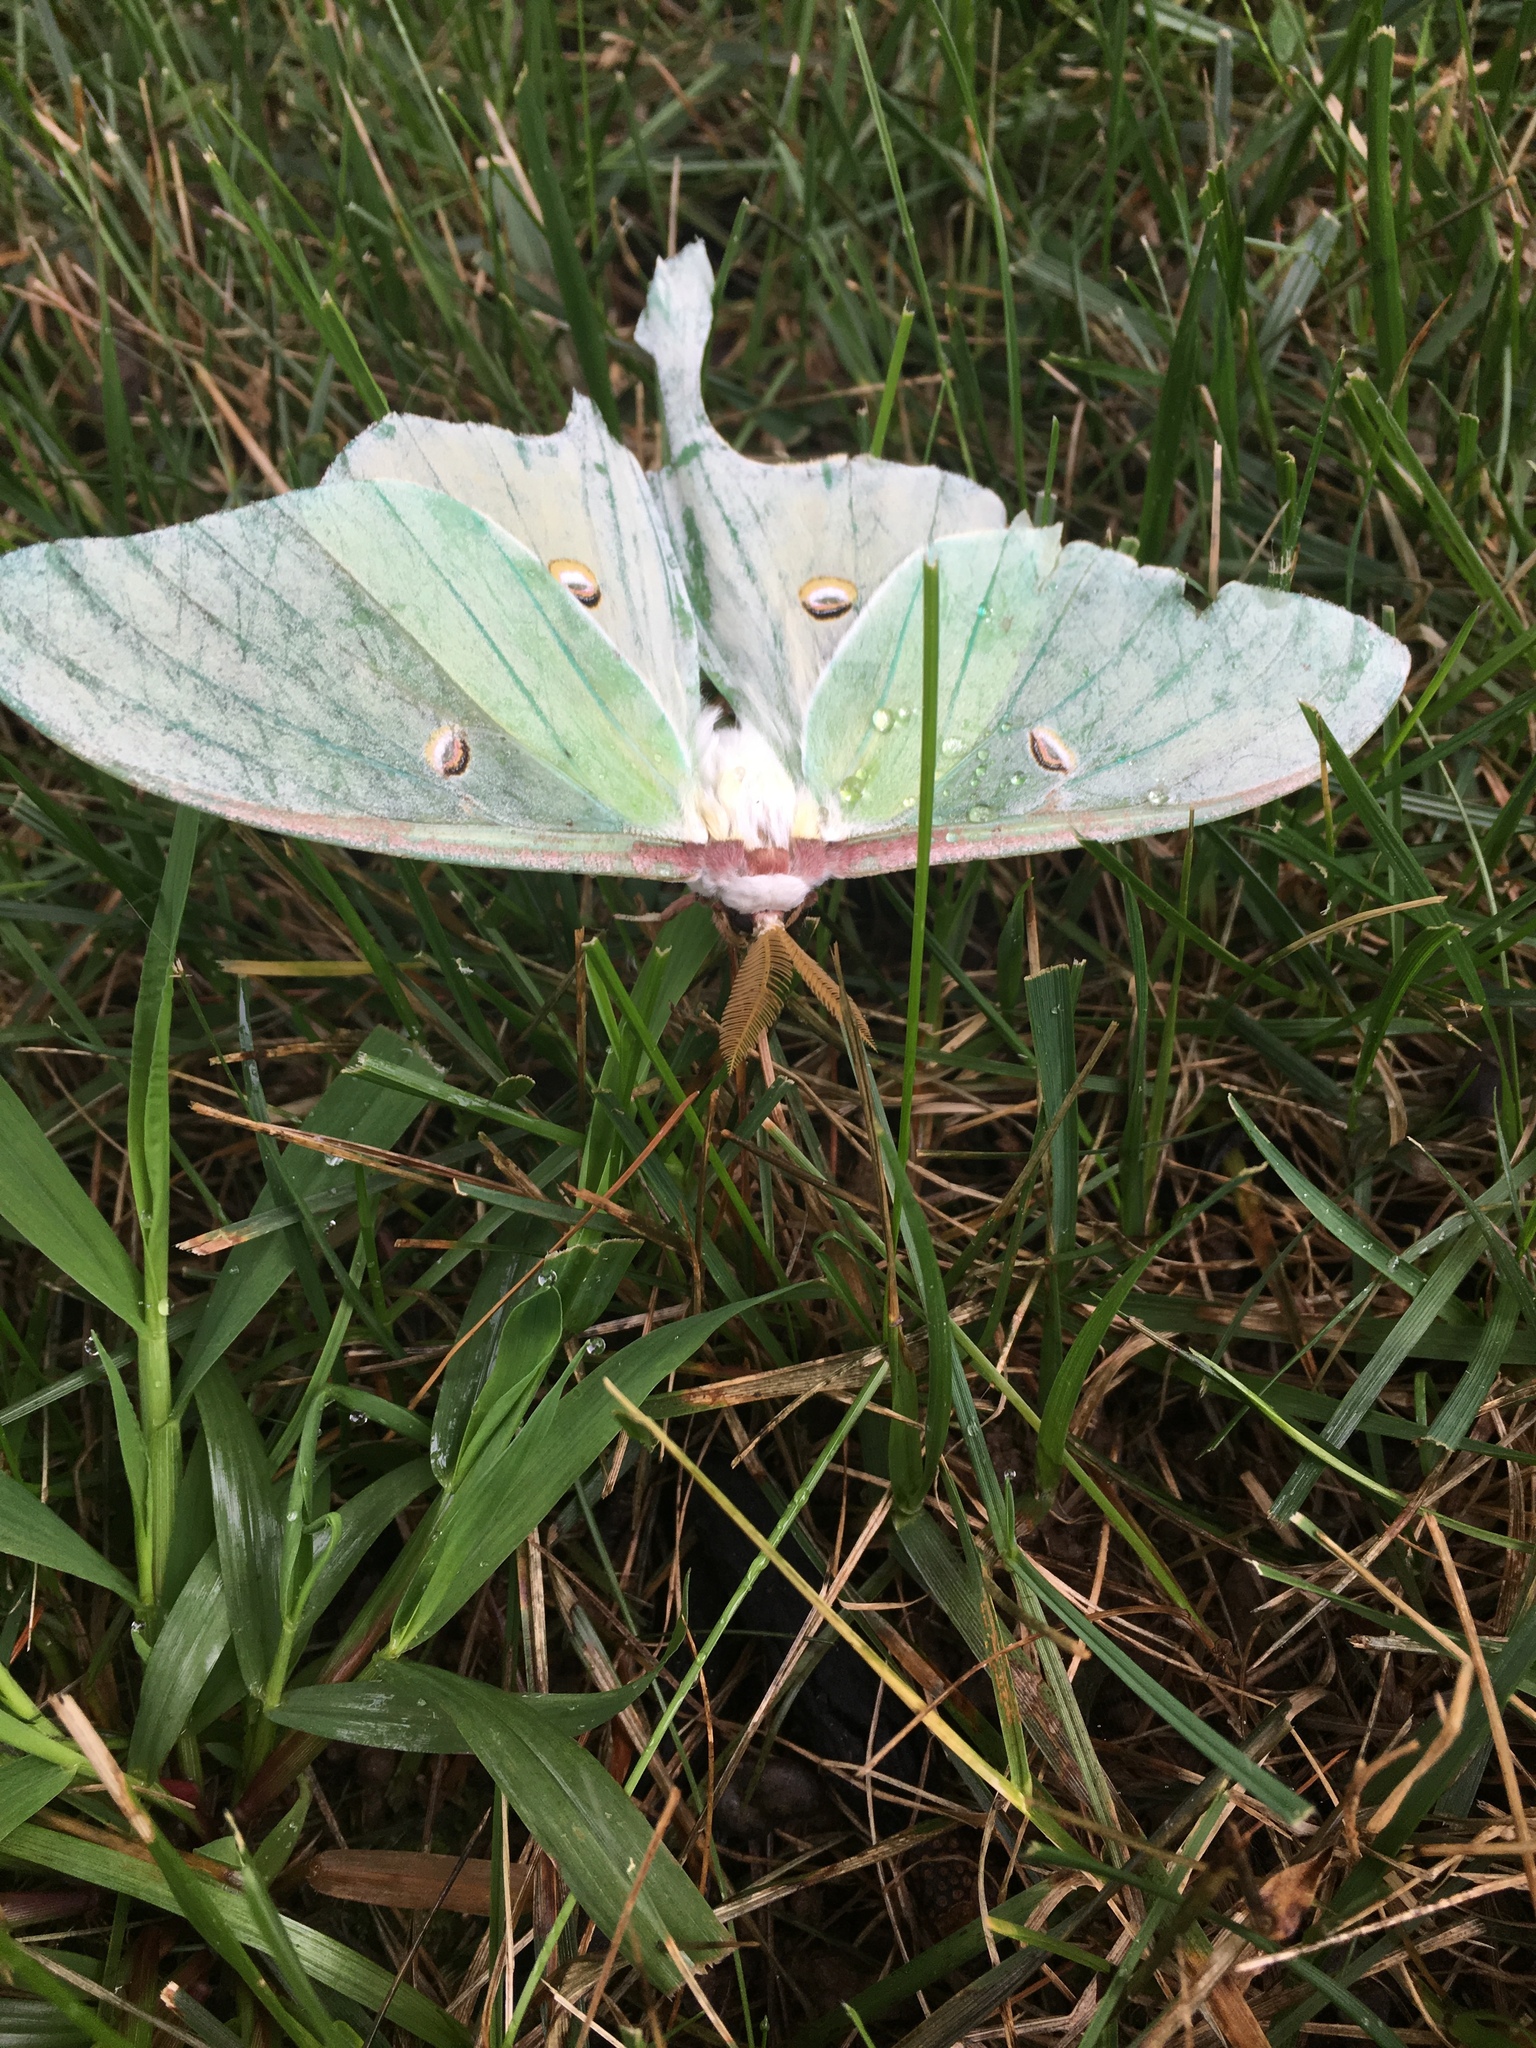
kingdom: Animalia
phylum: Arthropoda
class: Insecta
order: Lepidoptera
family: Saturniidae
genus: Actias
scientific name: Actias luna
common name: Luna moth
